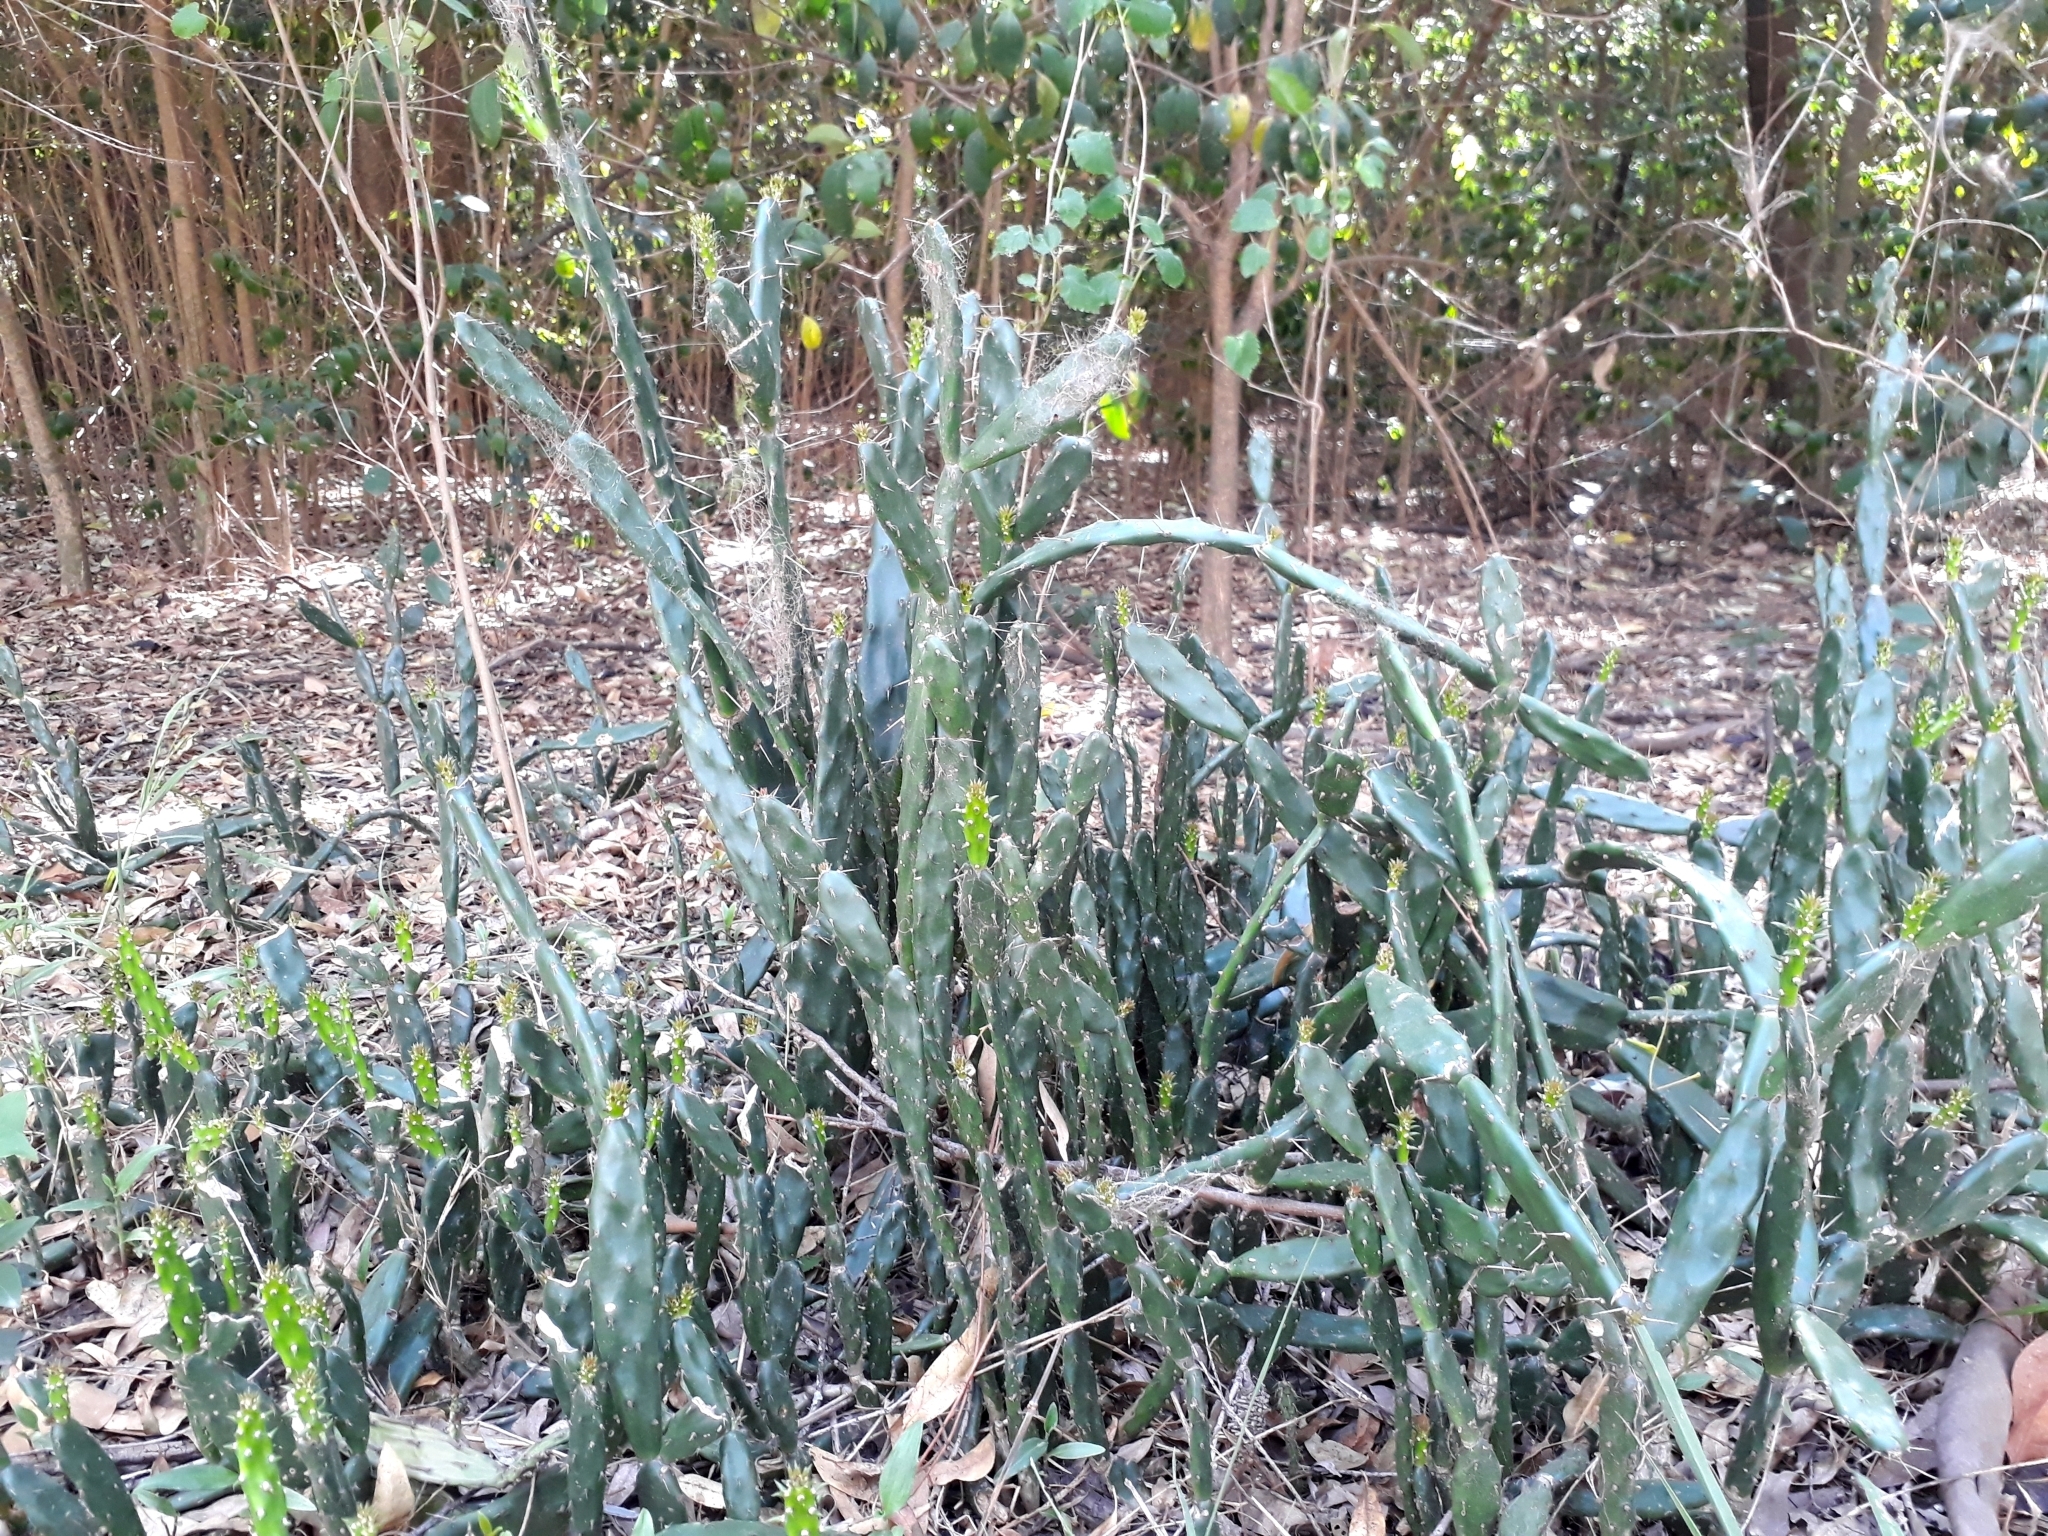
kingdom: Plantae
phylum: Tracheophyta
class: Magnoliopsida
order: Caryophyllales
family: Cactaceae
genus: Opuntia
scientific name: Opuntia anacantha
